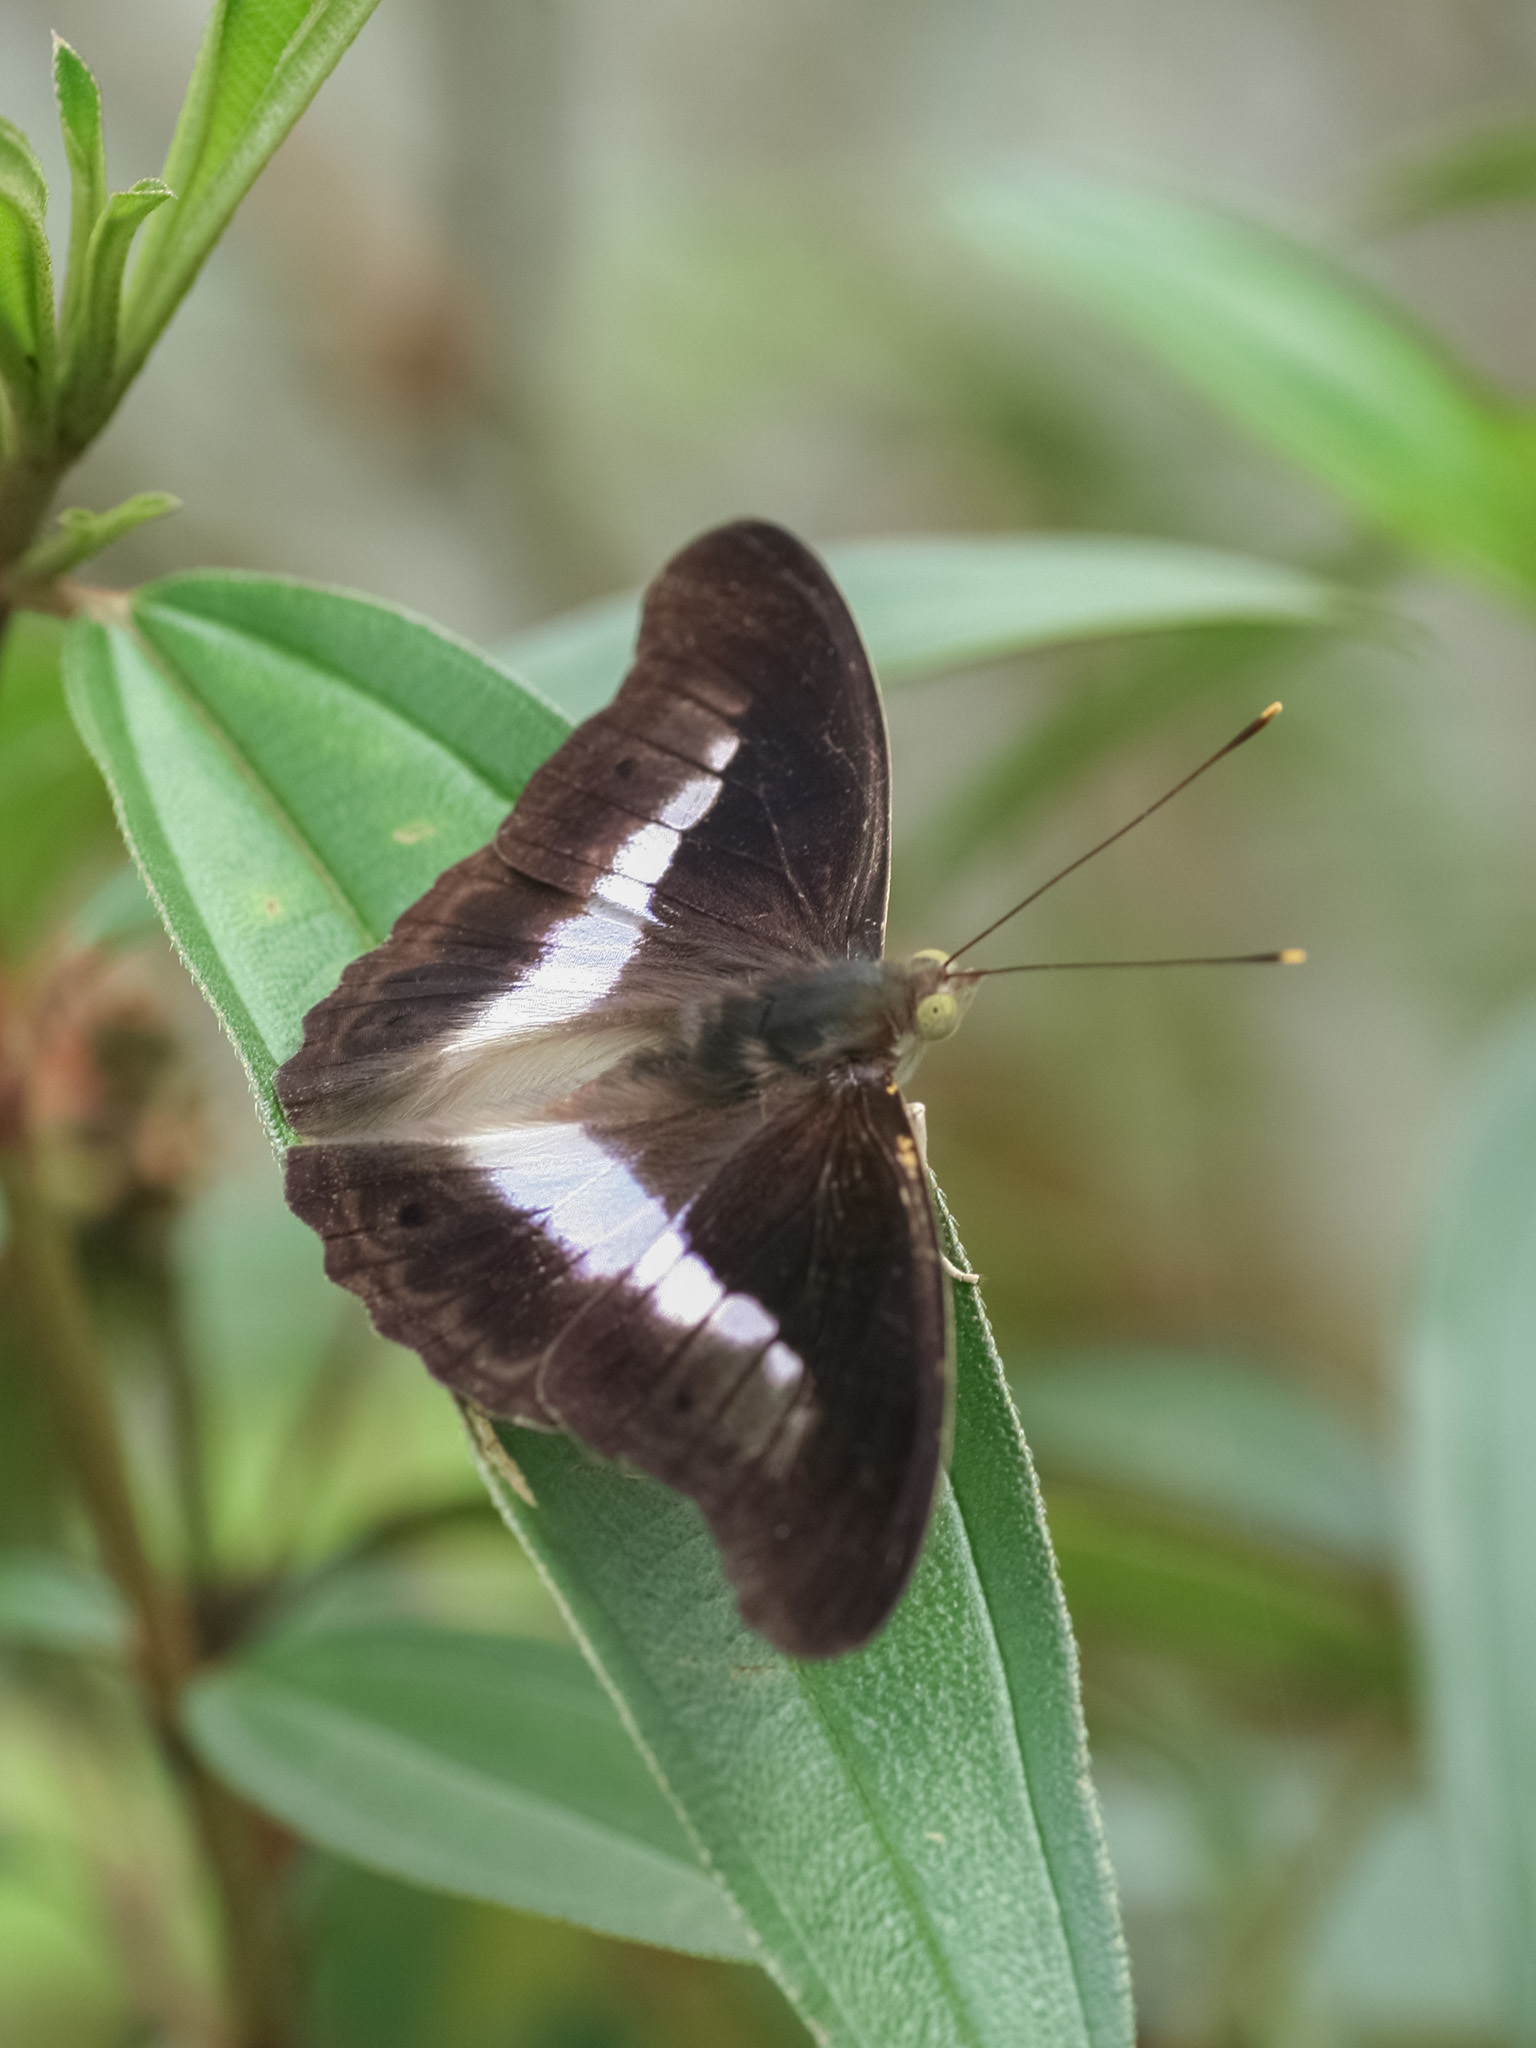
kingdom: Animalia
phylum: Arthropoda
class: Insecta
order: Lepidoptera
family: Nymphalidae
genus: Eulaceura
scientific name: Eulaceura osteria
